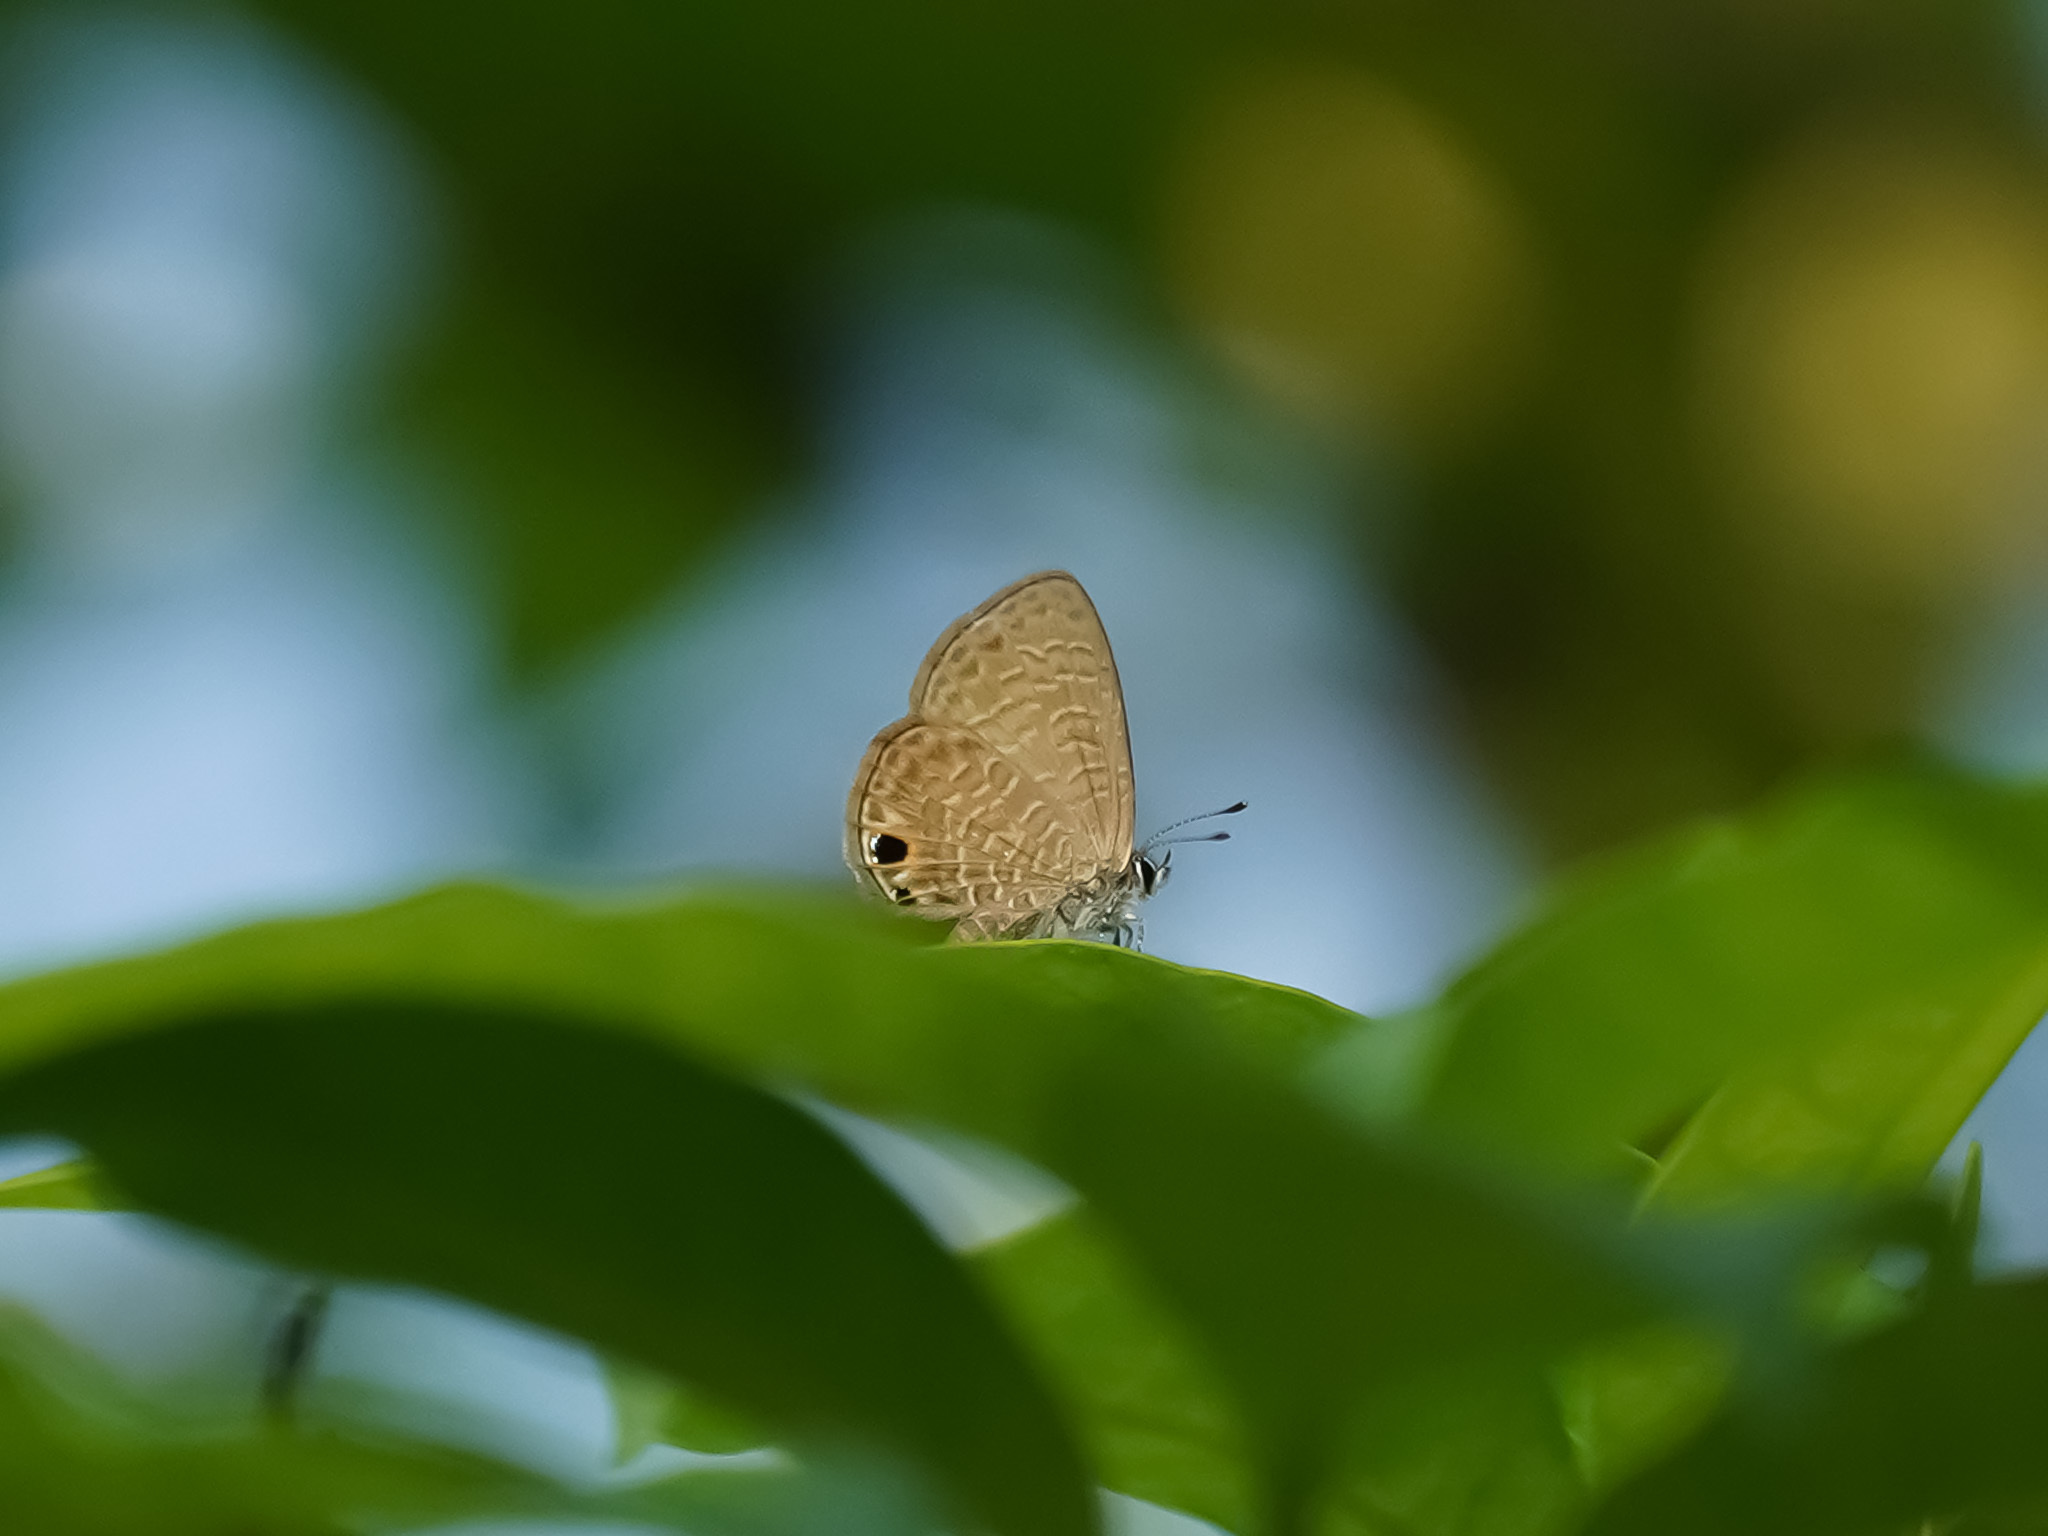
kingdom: Animalia
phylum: Arthropoda
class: Insecta
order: Lepidoptera
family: Lycaenidae
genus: Prosotas
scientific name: Prosotas dubiosa
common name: Tailless lineblue
